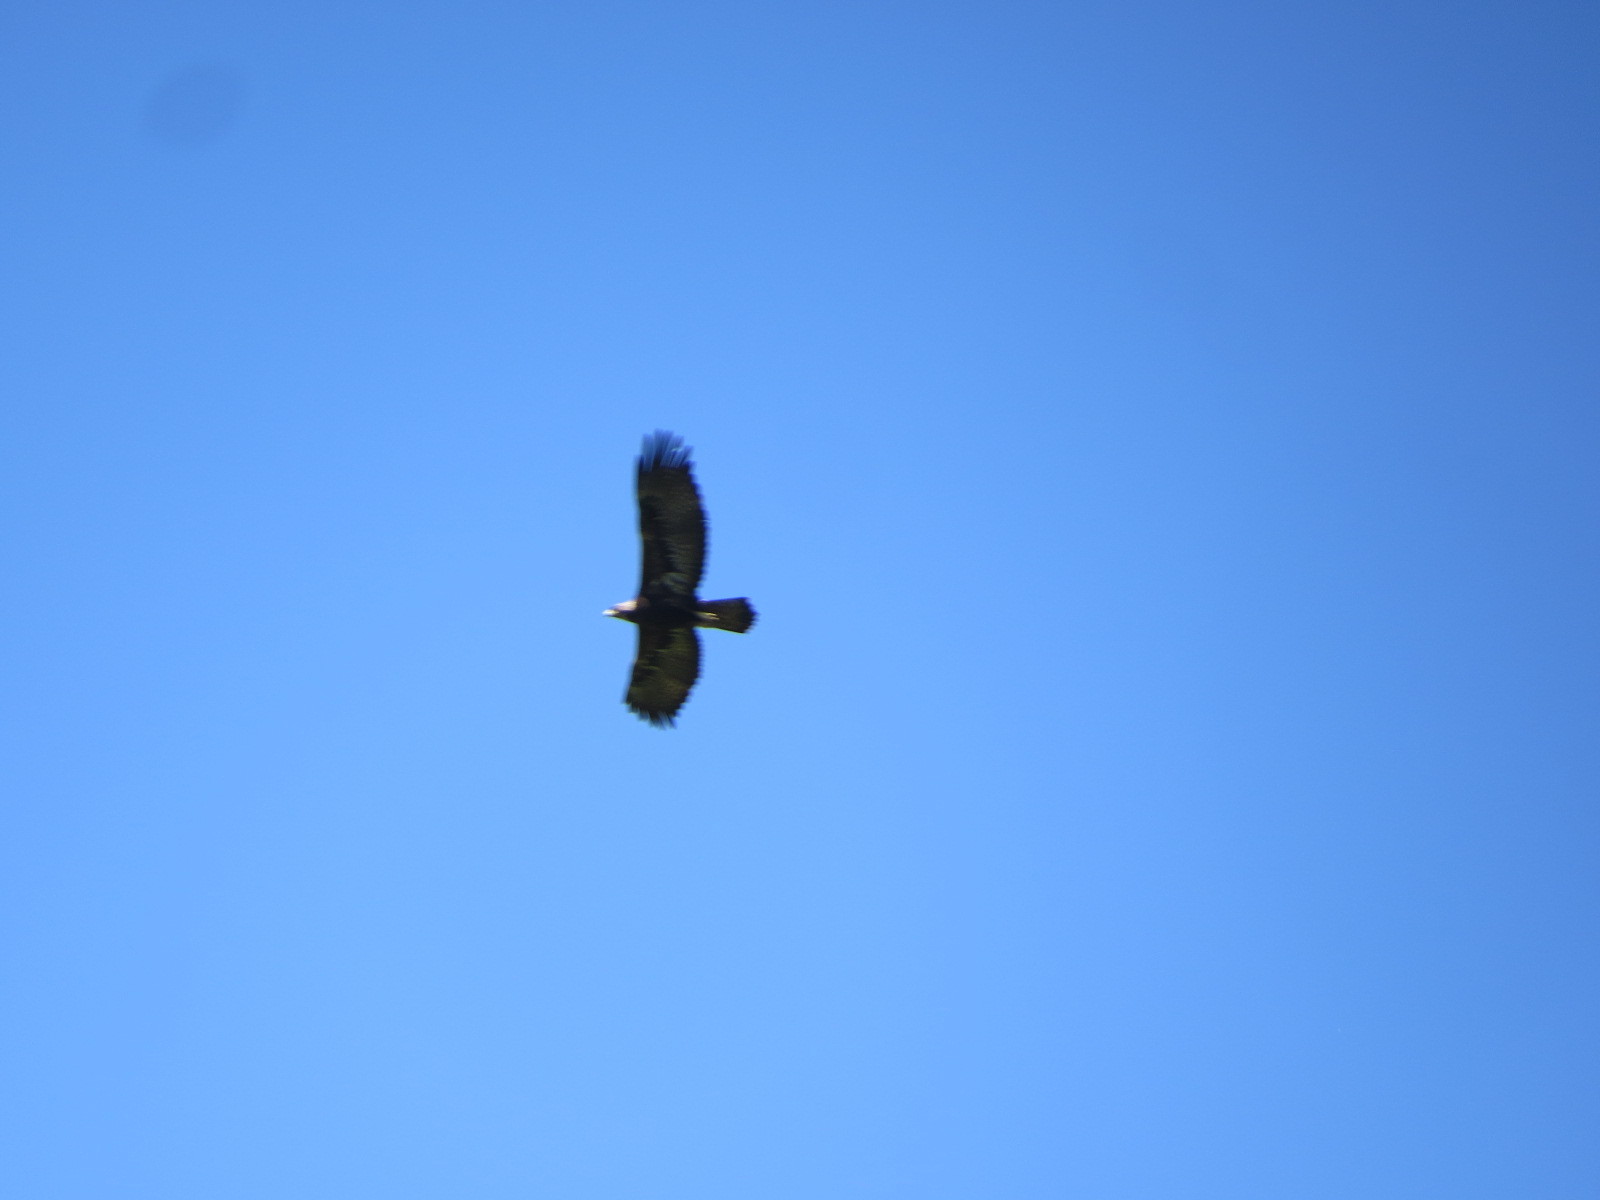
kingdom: Animalia
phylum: Chordata
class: Aves
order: Accipitriformes
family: Accipitridae
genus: Aquila
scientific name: Aquila chrysaetos
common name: Golden eagle
